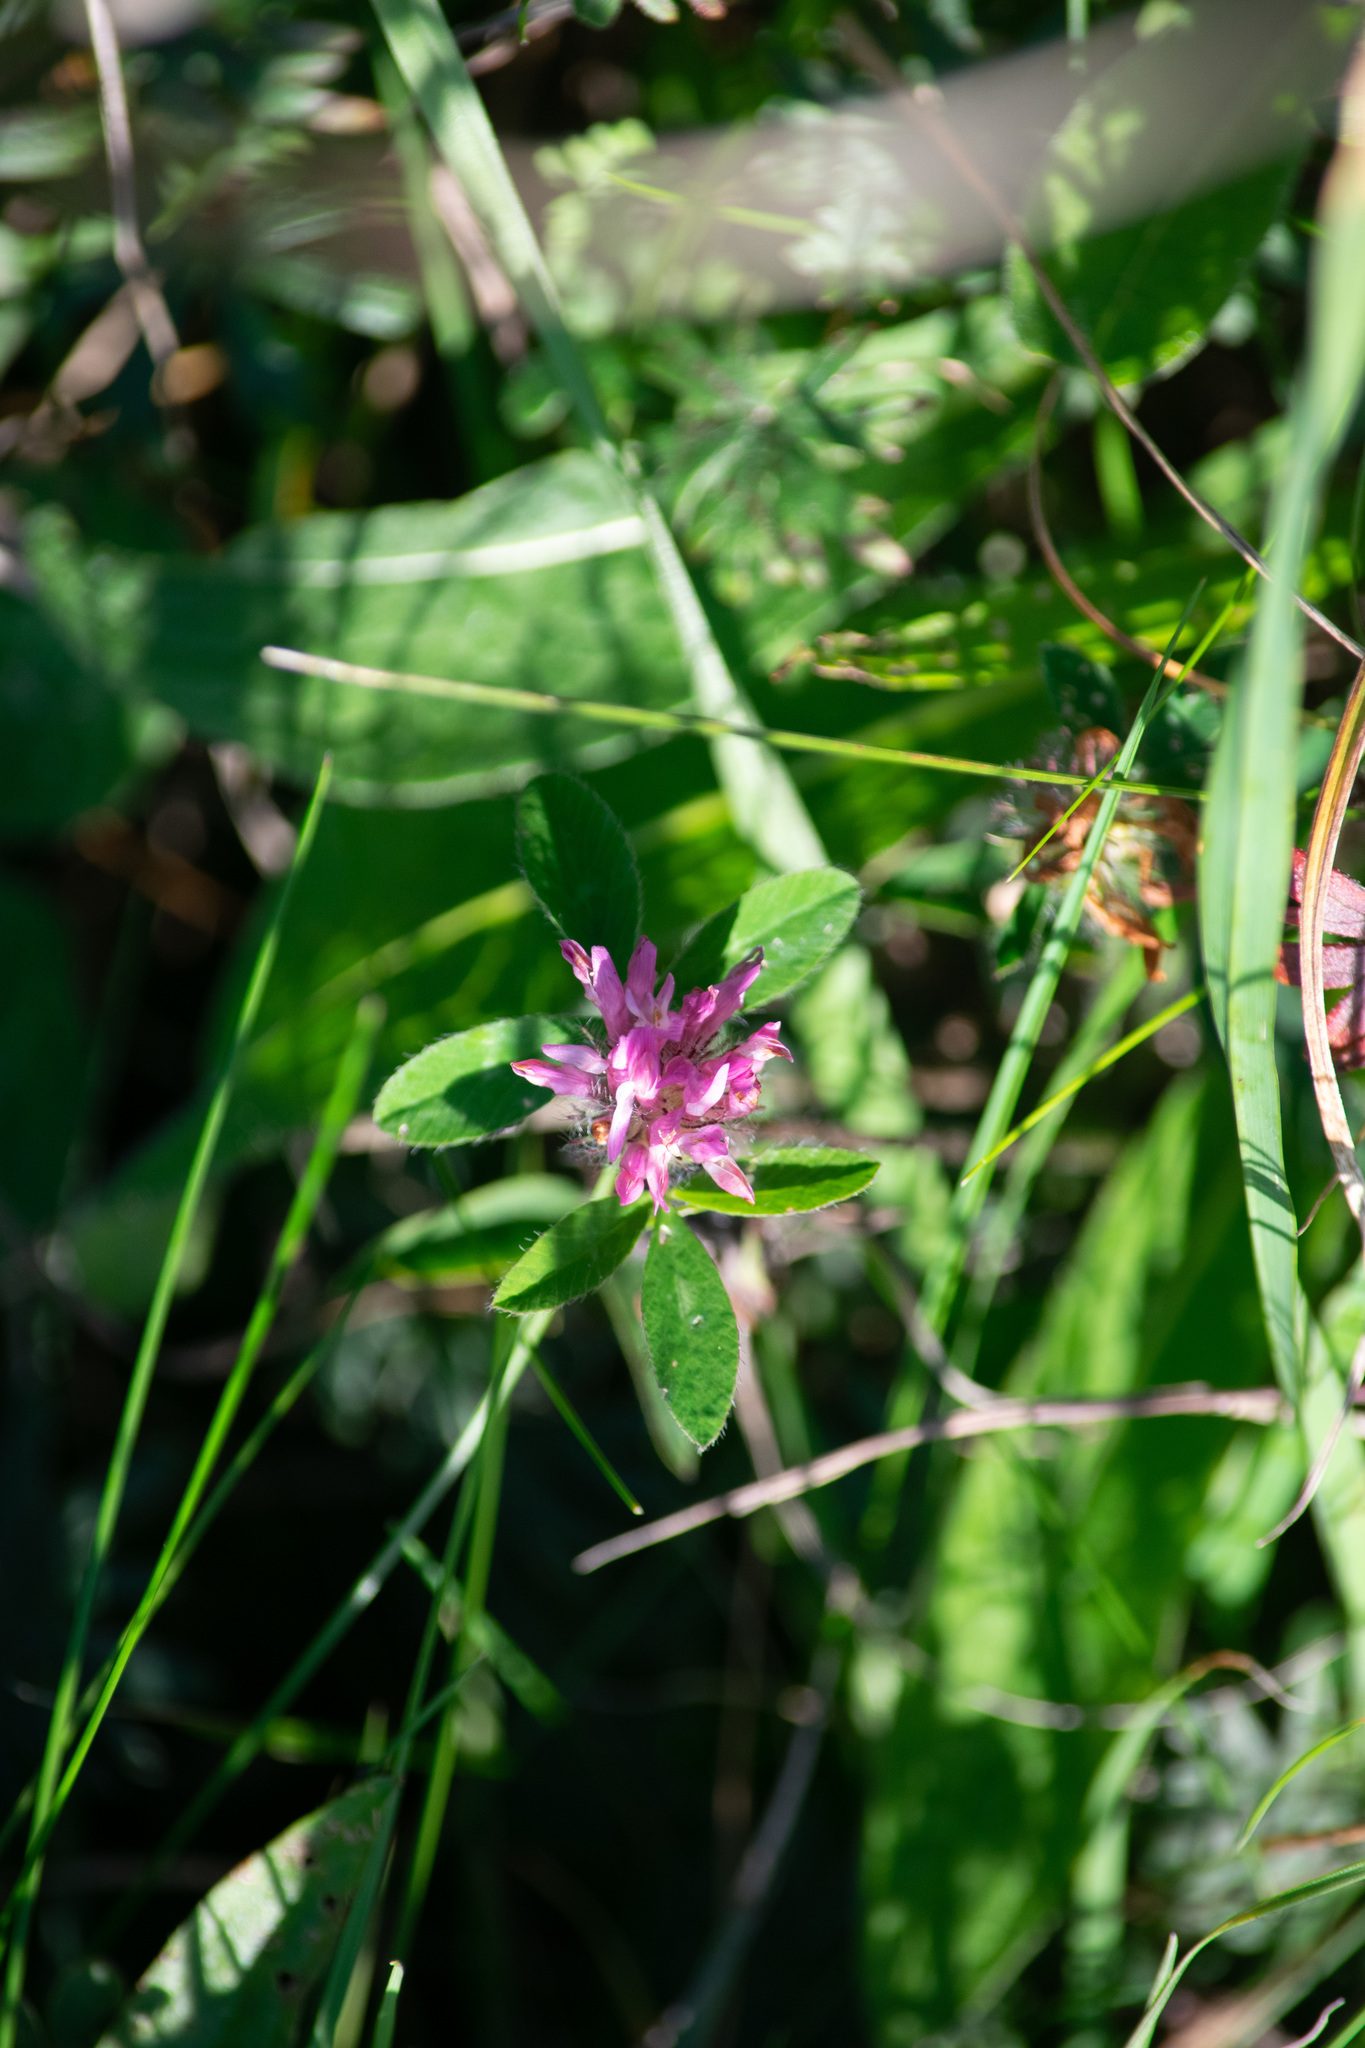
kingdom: Plantae
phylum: Tracheophyta
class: Magnoliopsida
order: Fabales
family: Fabaceae
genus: Trifolium
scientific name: Trifolium pratense
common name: Red clover
